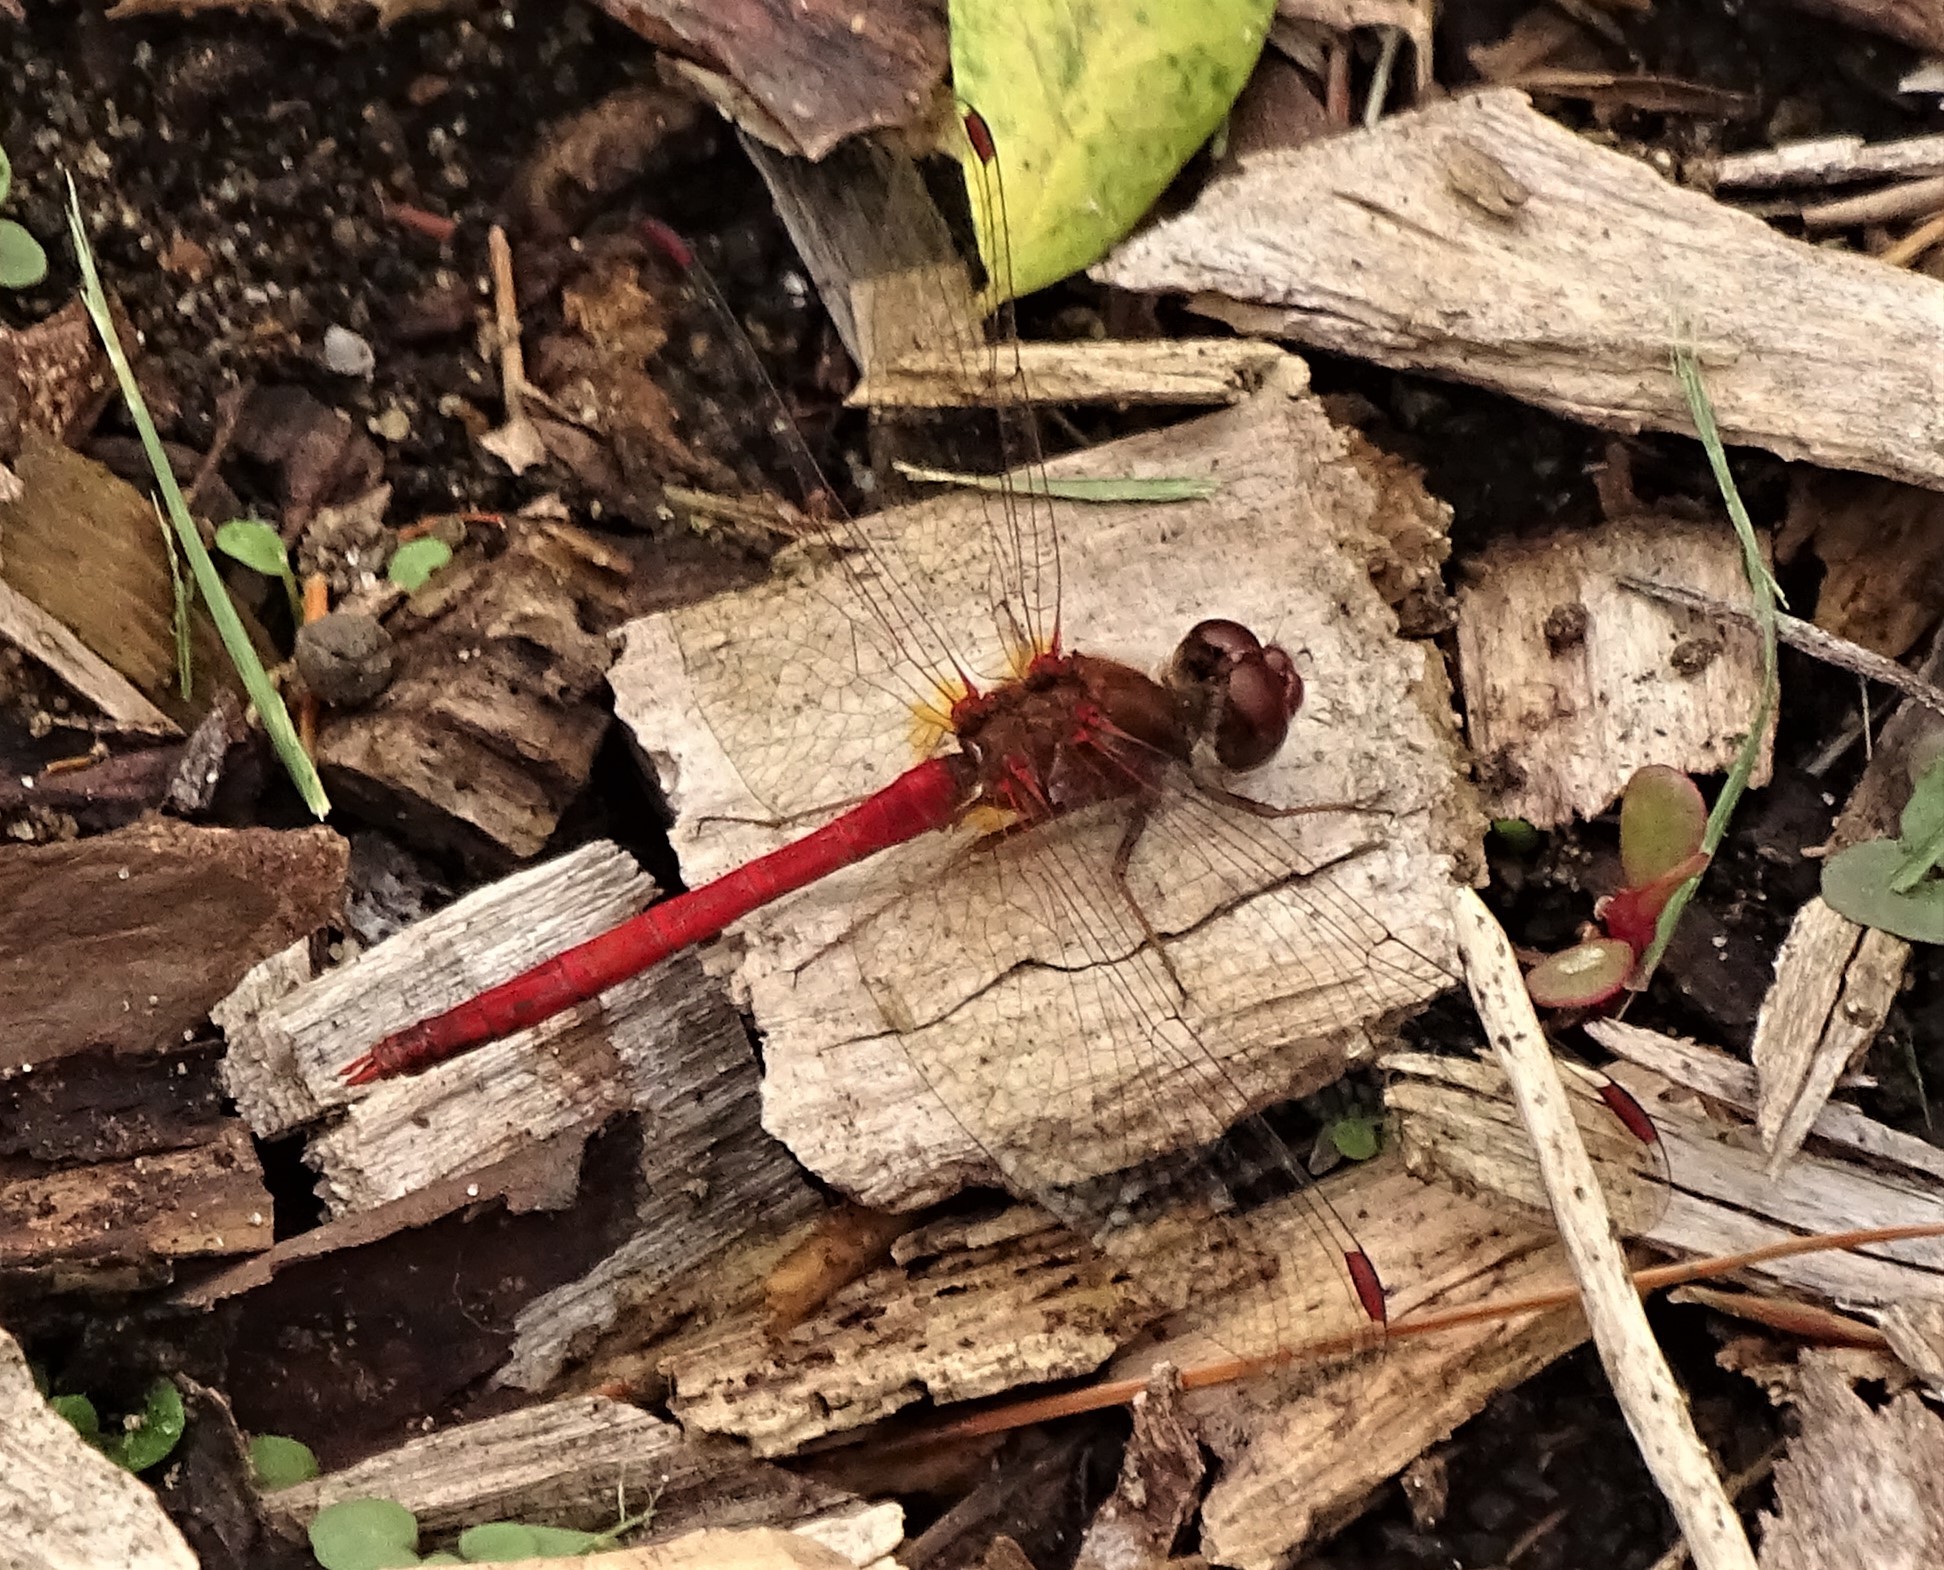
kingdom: Animalia
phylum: Arthropoda
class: Insecta
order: Odonata
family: Libellulidae
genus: Sympetrum
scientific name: Sympetrum vicinum
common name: Autumn meadowhawk
